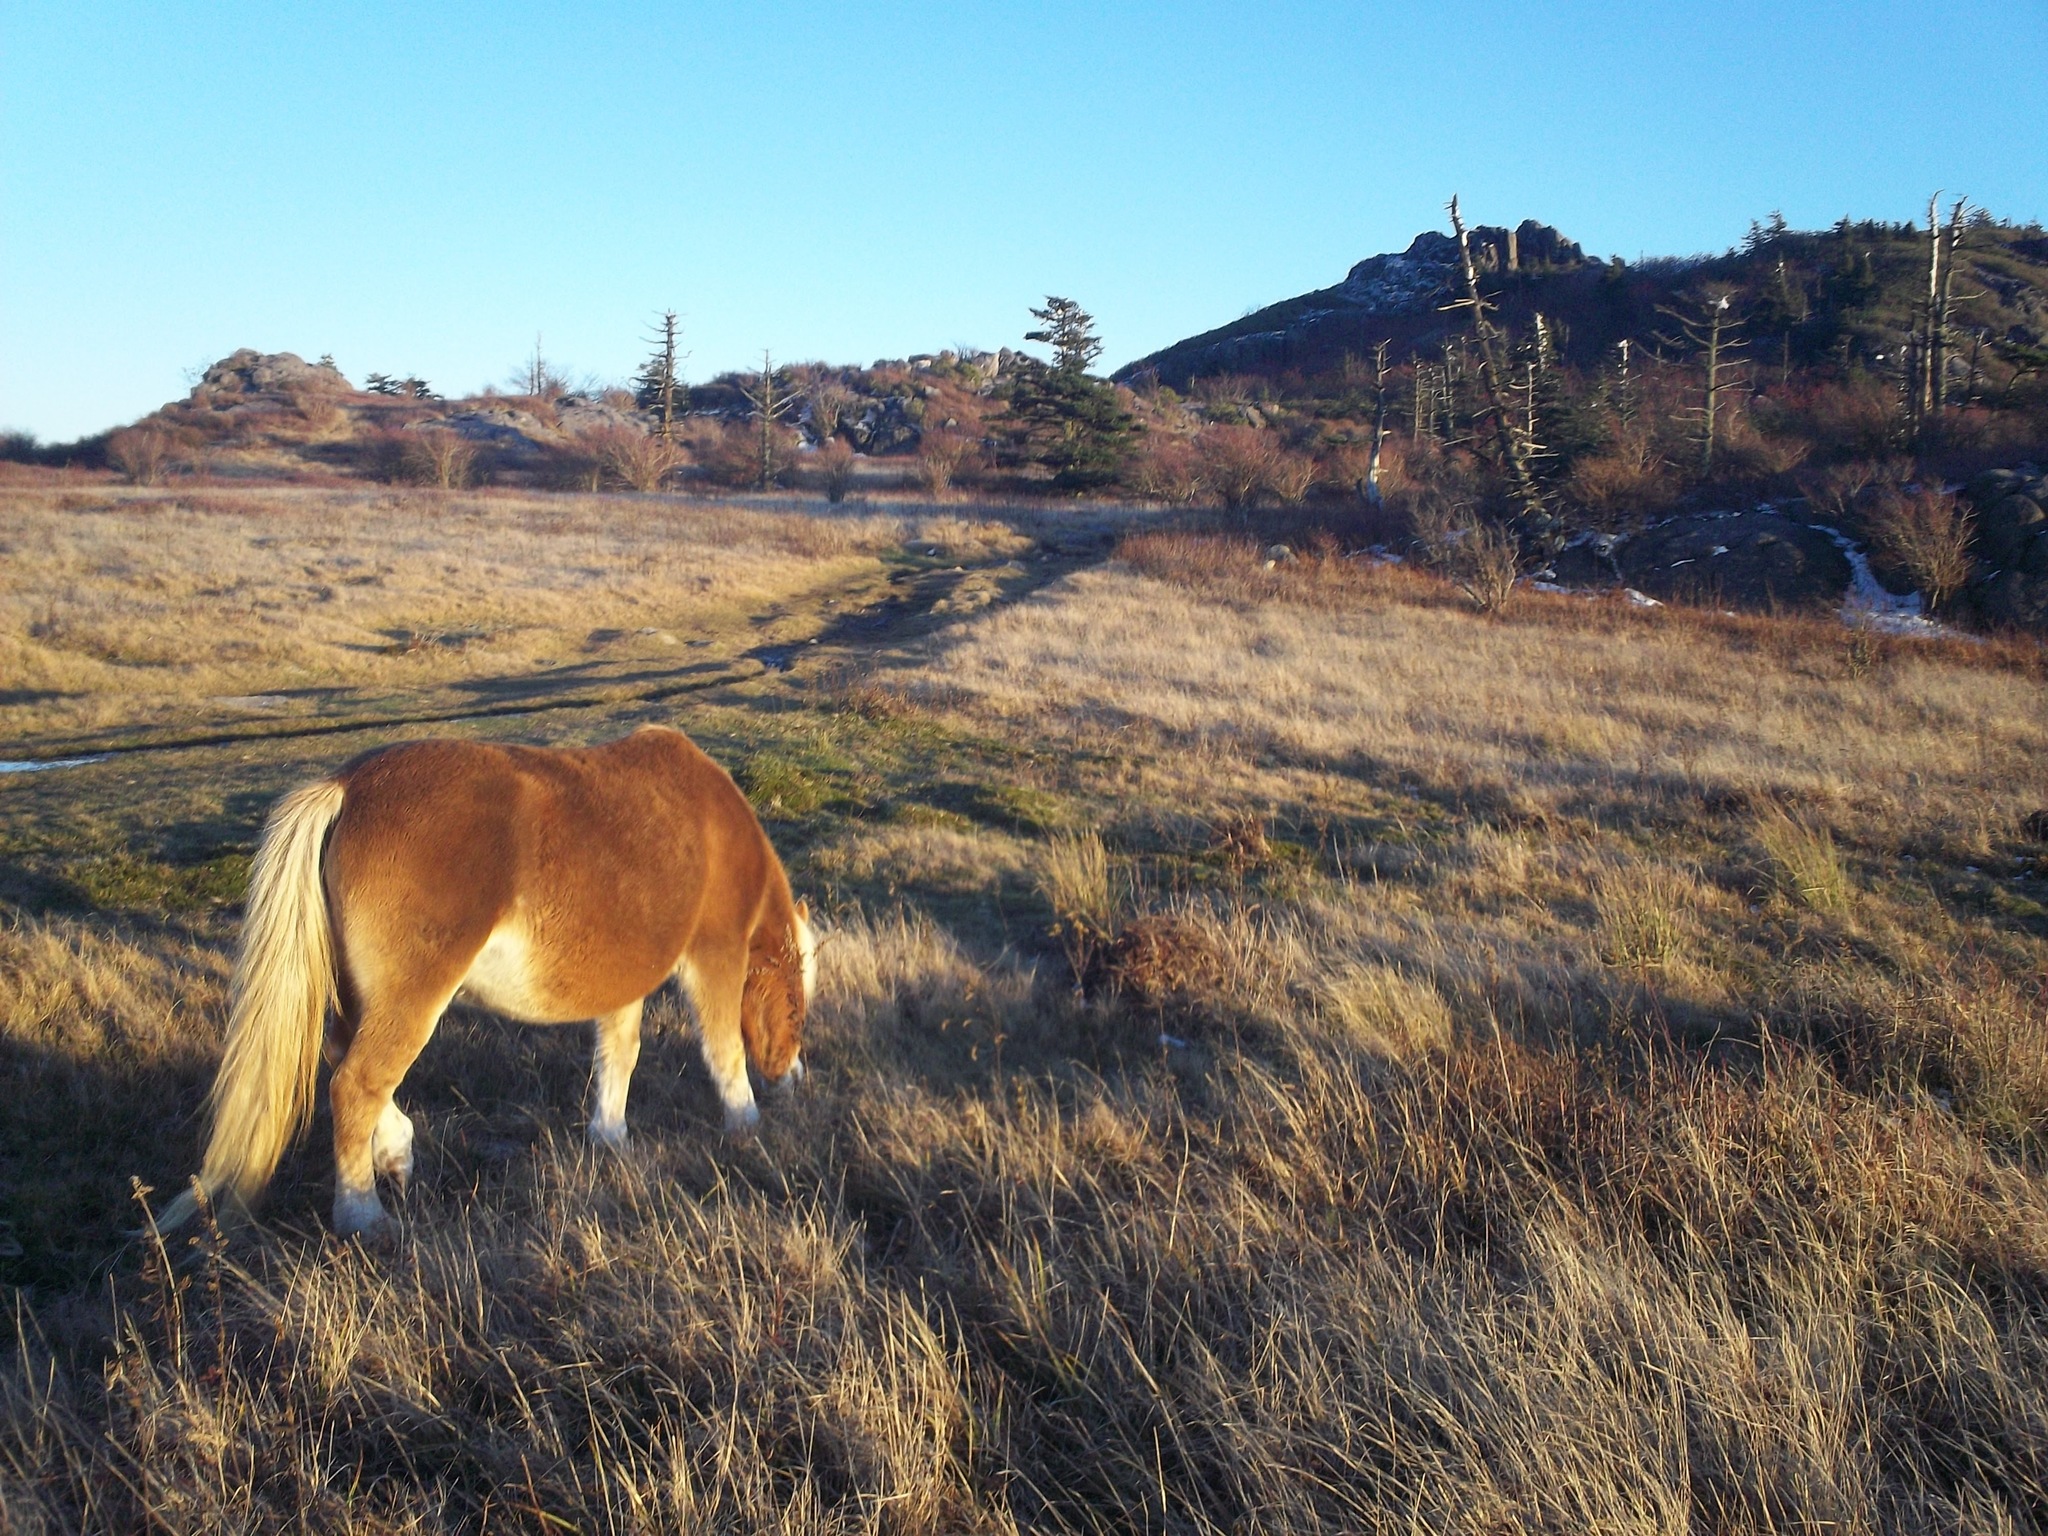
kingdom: Animalia
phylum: Chordata
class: Mammalia
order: Perissodactyla
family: Equidae
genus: Equus
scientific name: Equus caballus
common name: Horse
